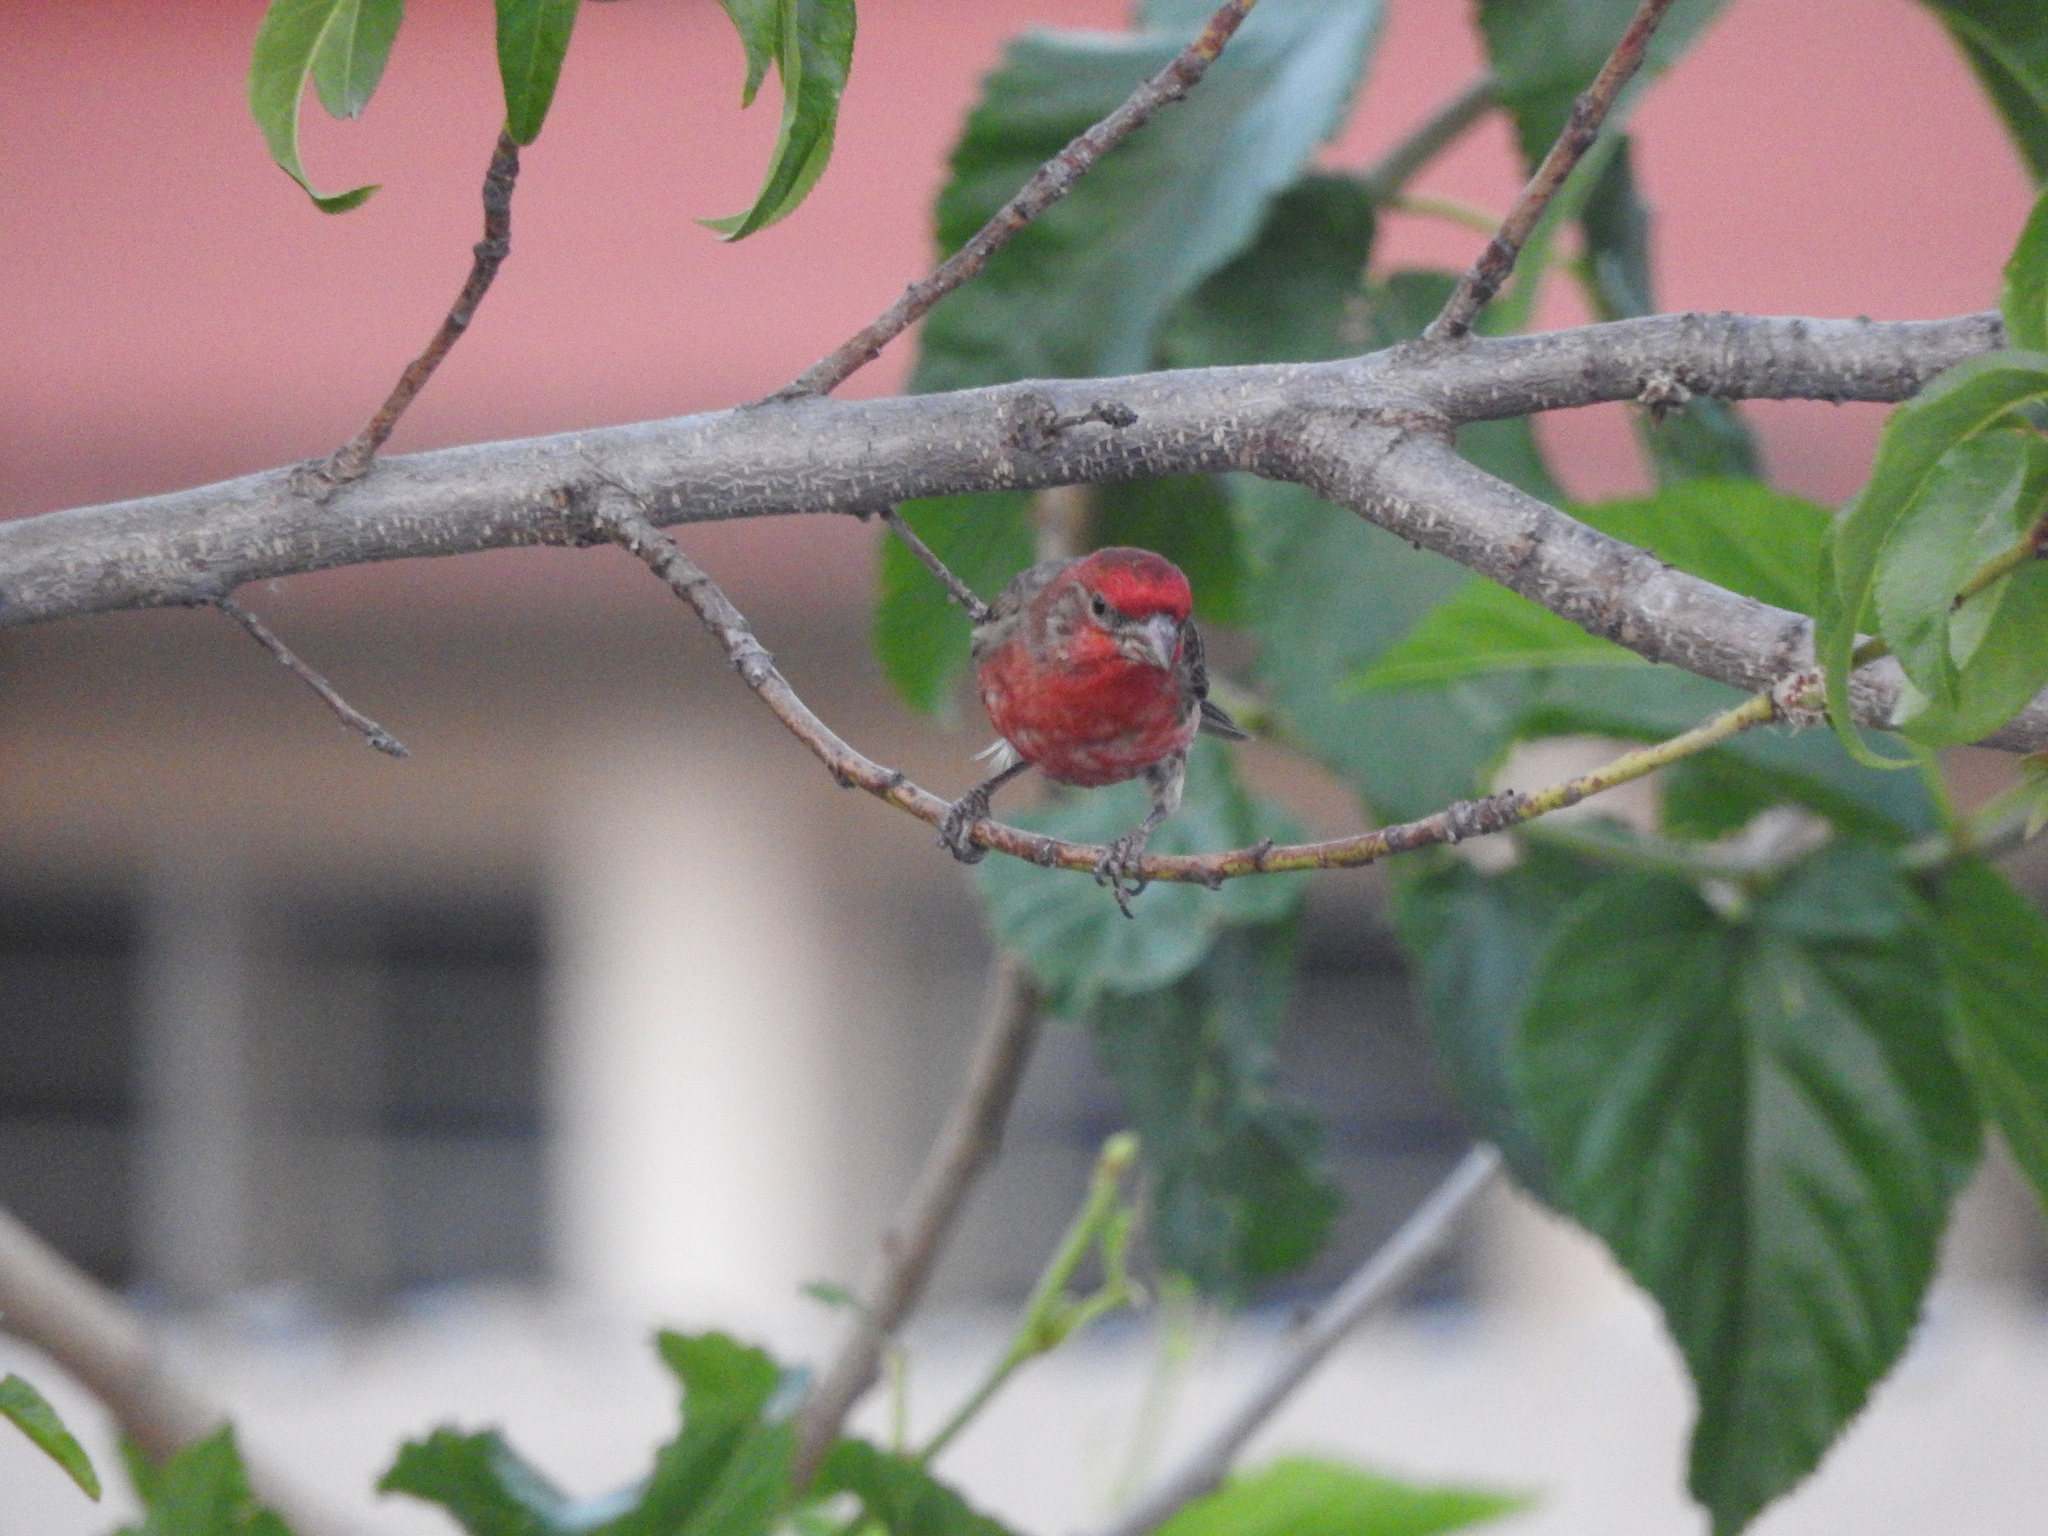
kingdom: Animalia
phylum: Chordata
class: Aves
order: Passeriformes
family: Fringillidae
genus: Haemorhous
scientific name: Haemorhous mexicanus
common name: House finch
